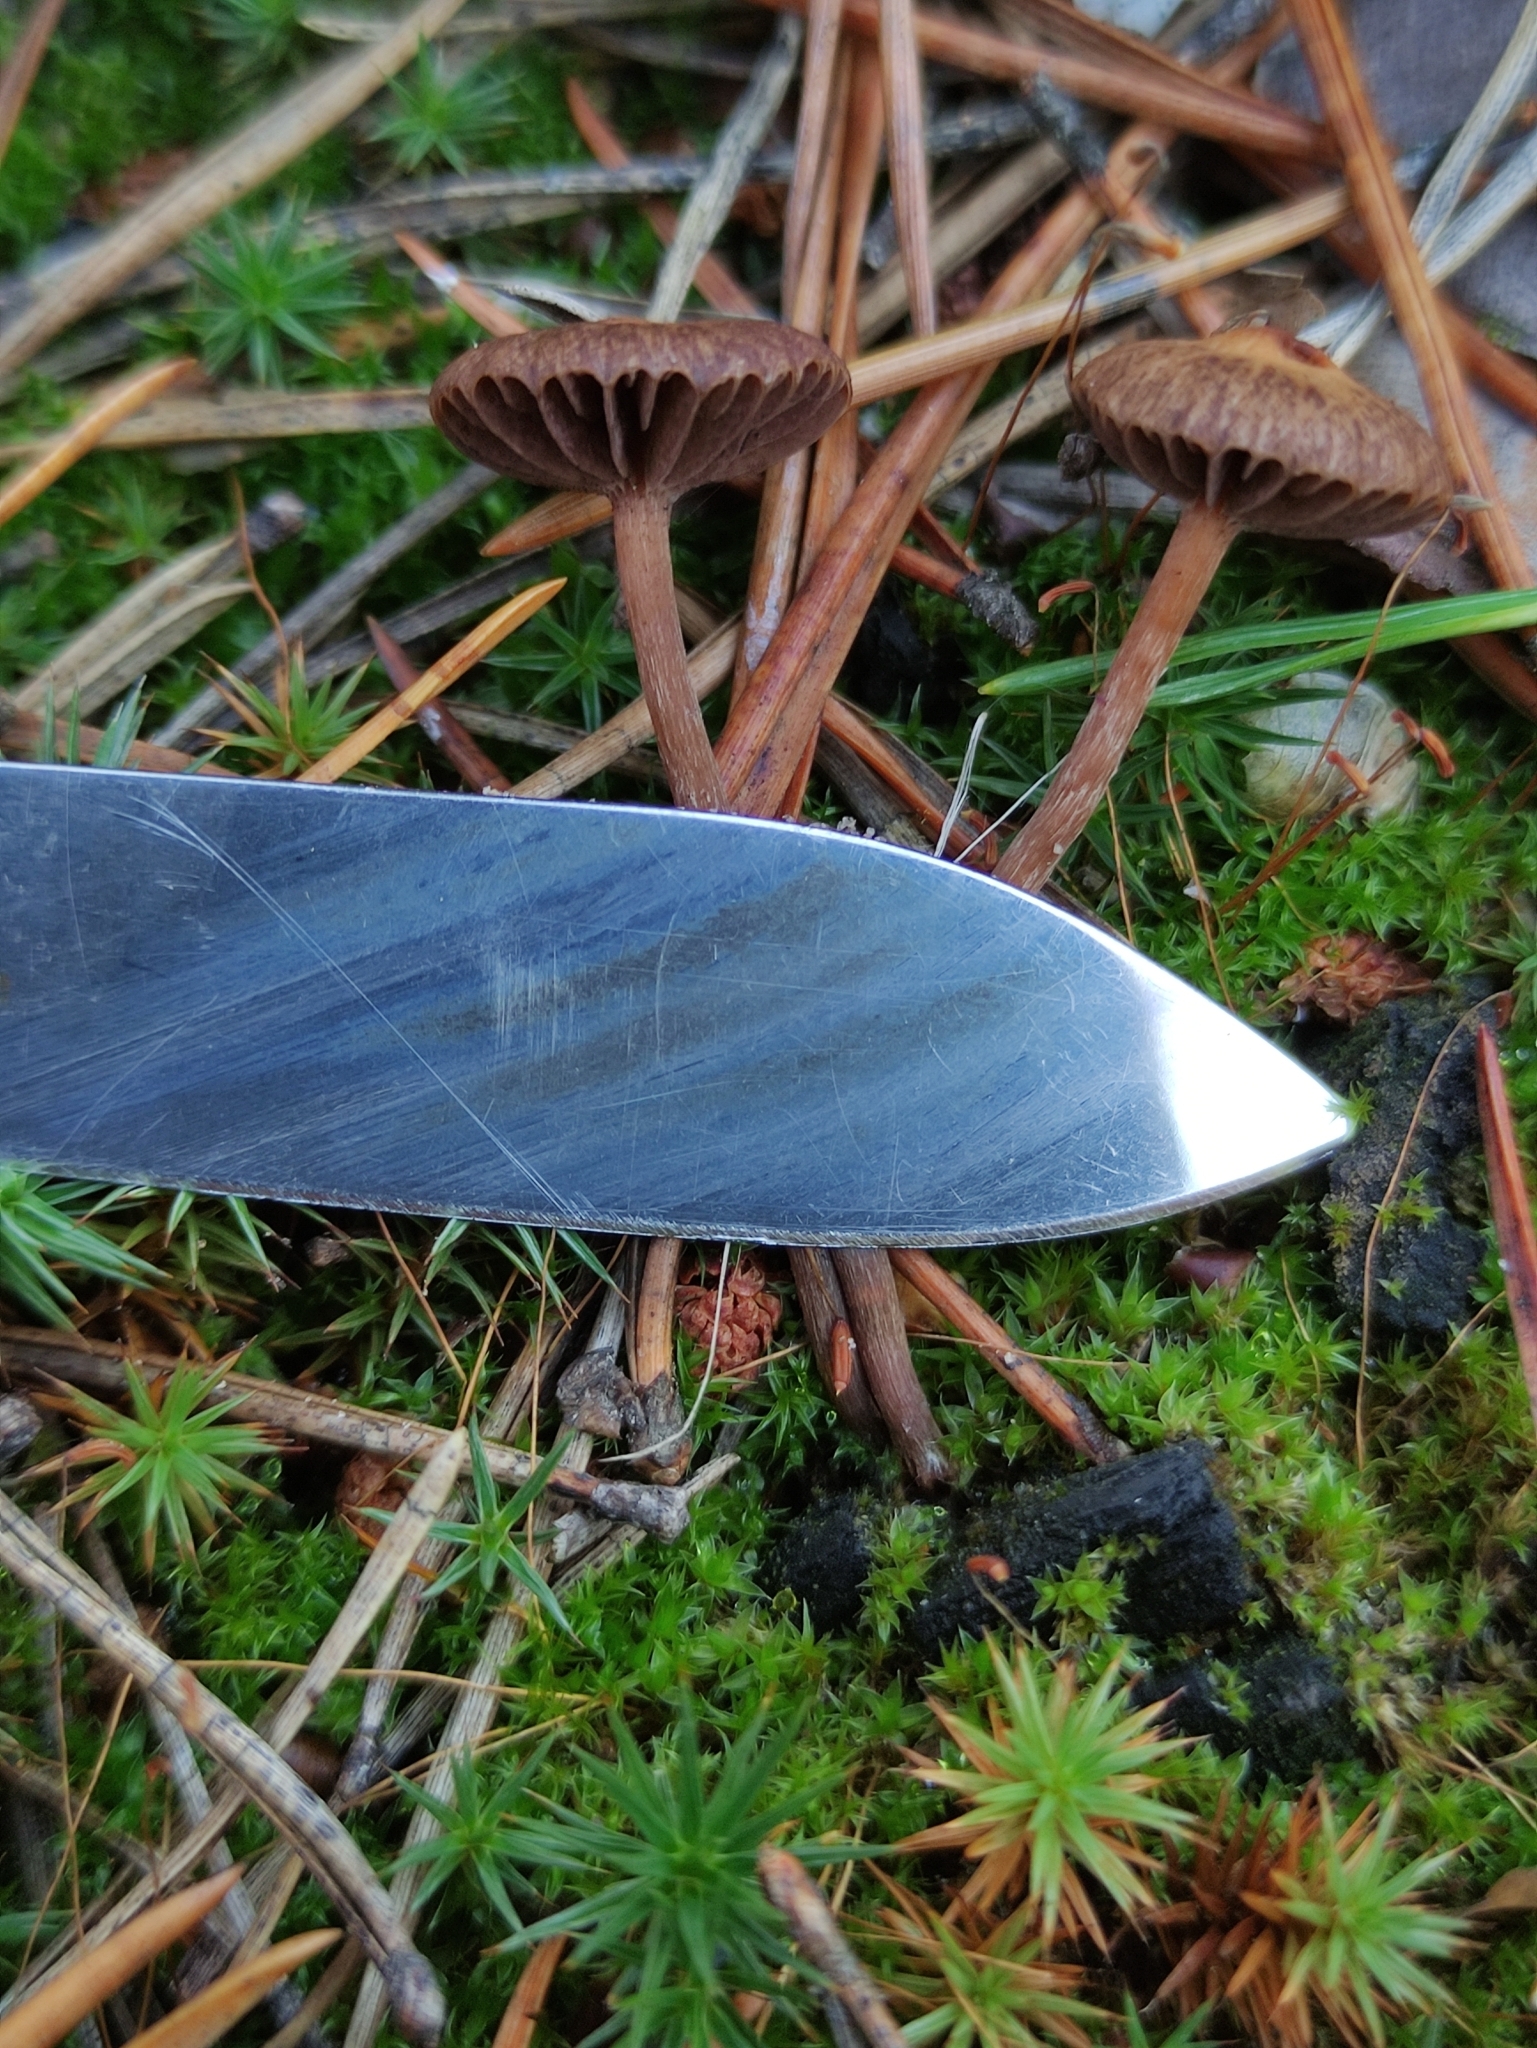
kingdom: Fungi
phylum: Basidiomycota
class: Agaricomycetes
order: Agaricales
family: Strophariaceae
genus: Deconica
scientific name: Deconica montana
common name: Mountain moss deconica
